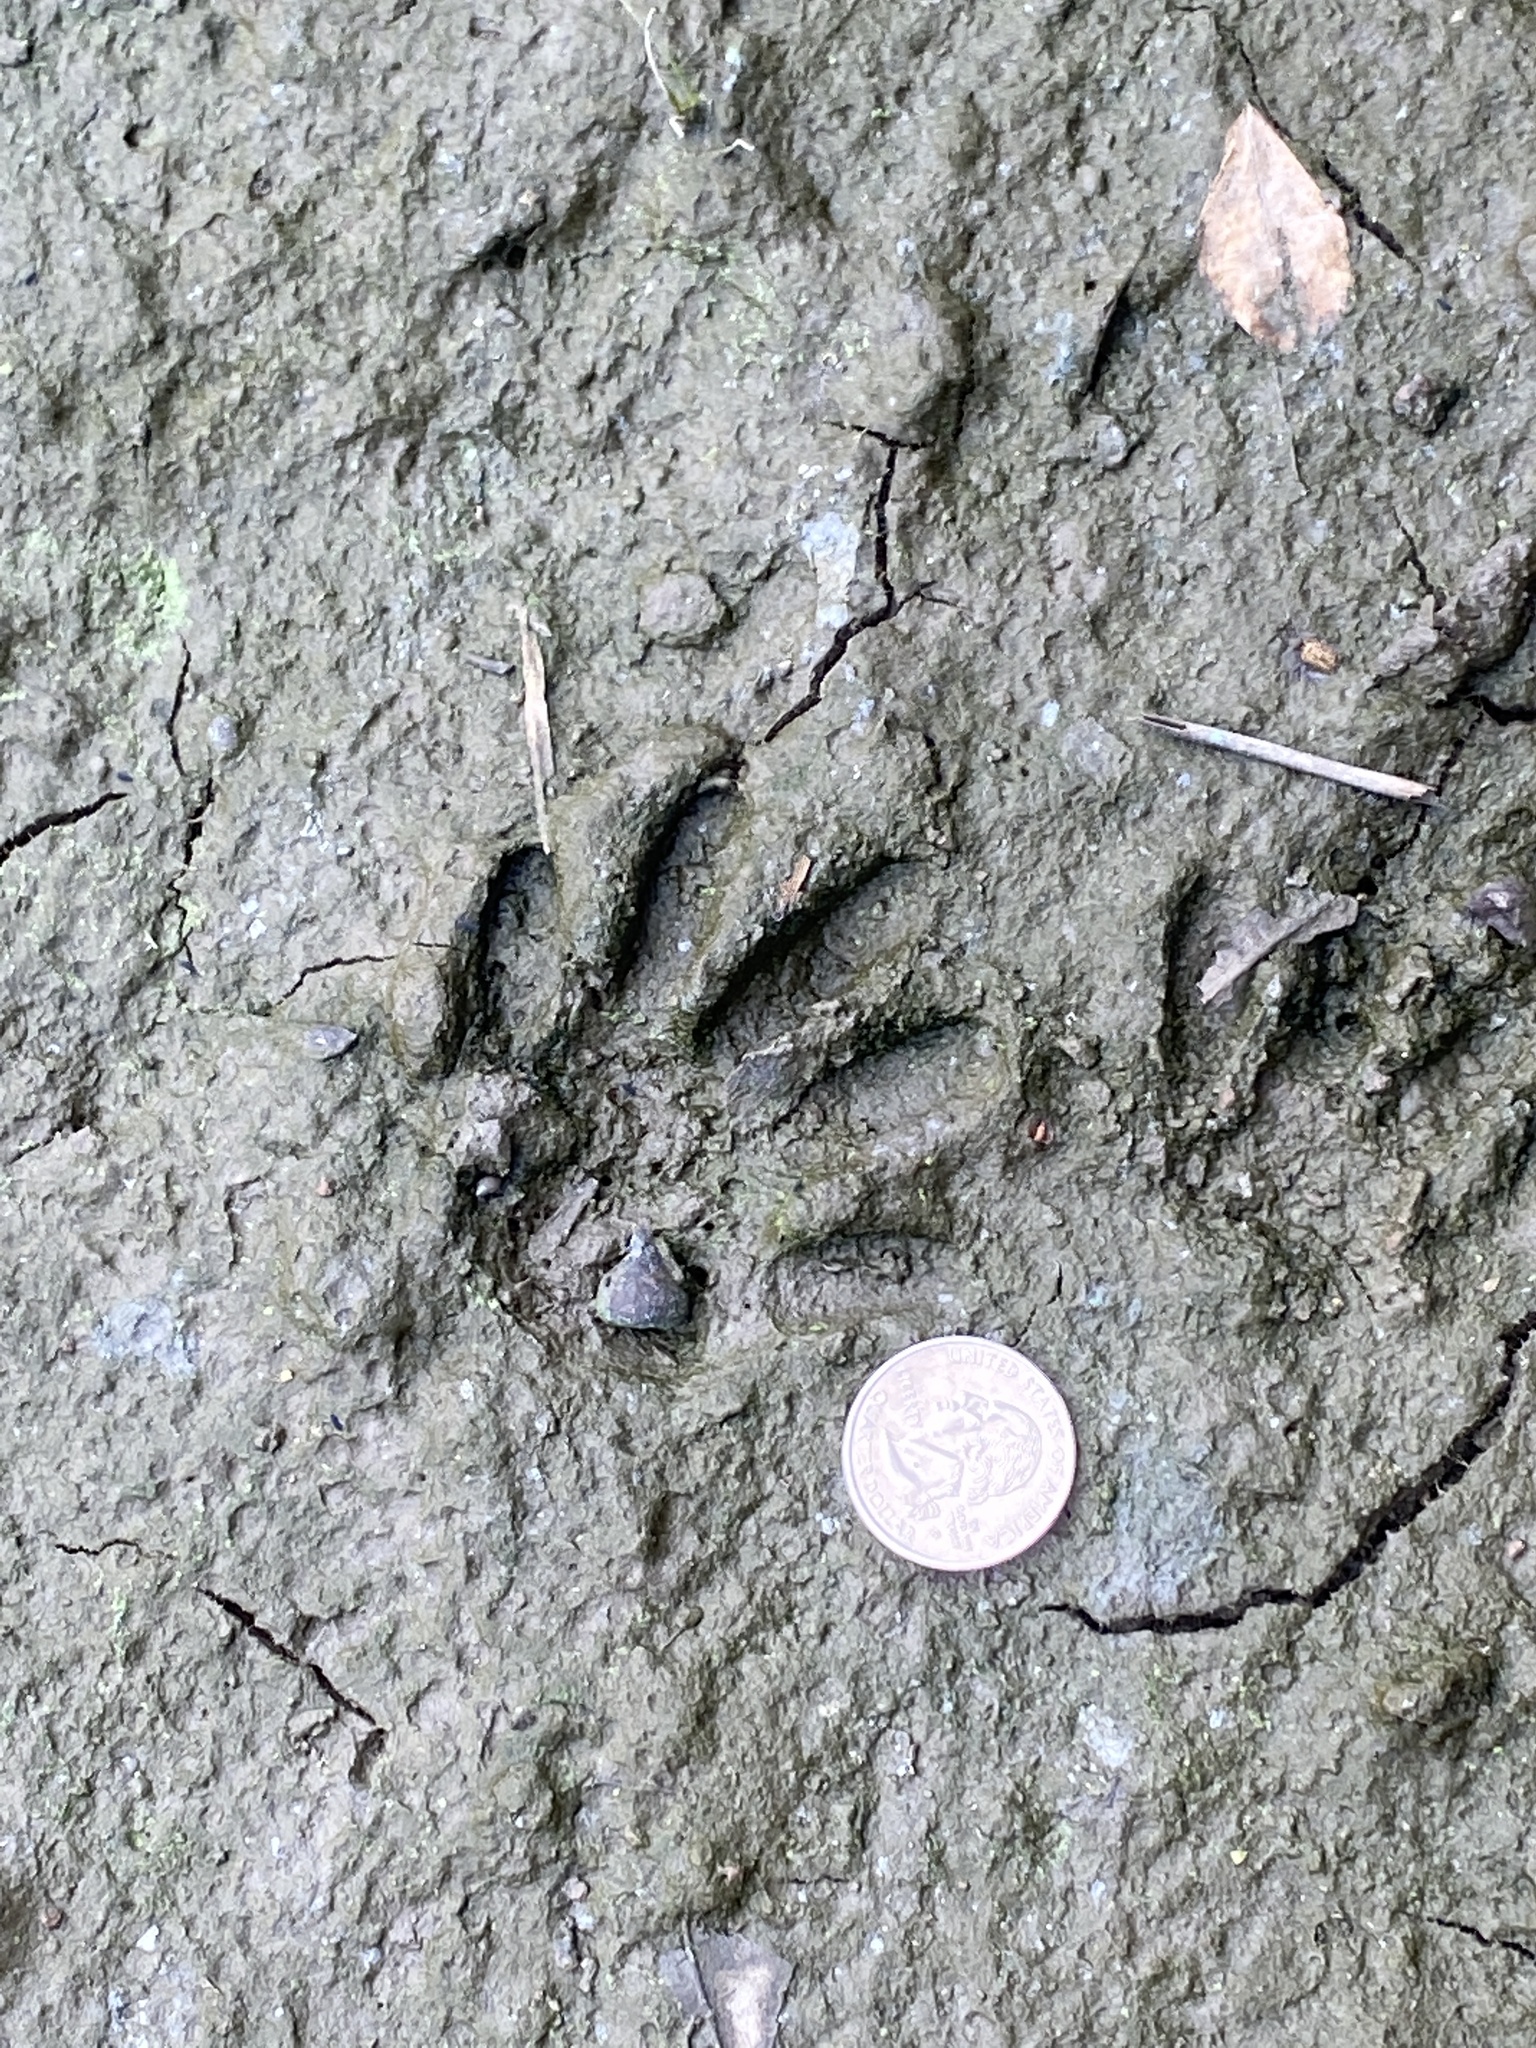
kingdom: Animalia
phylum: Chordata
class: Mammalia
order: Carnivora
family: Procyonidae
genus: Procyon
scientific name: Procyon lotor
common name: Raccoon
